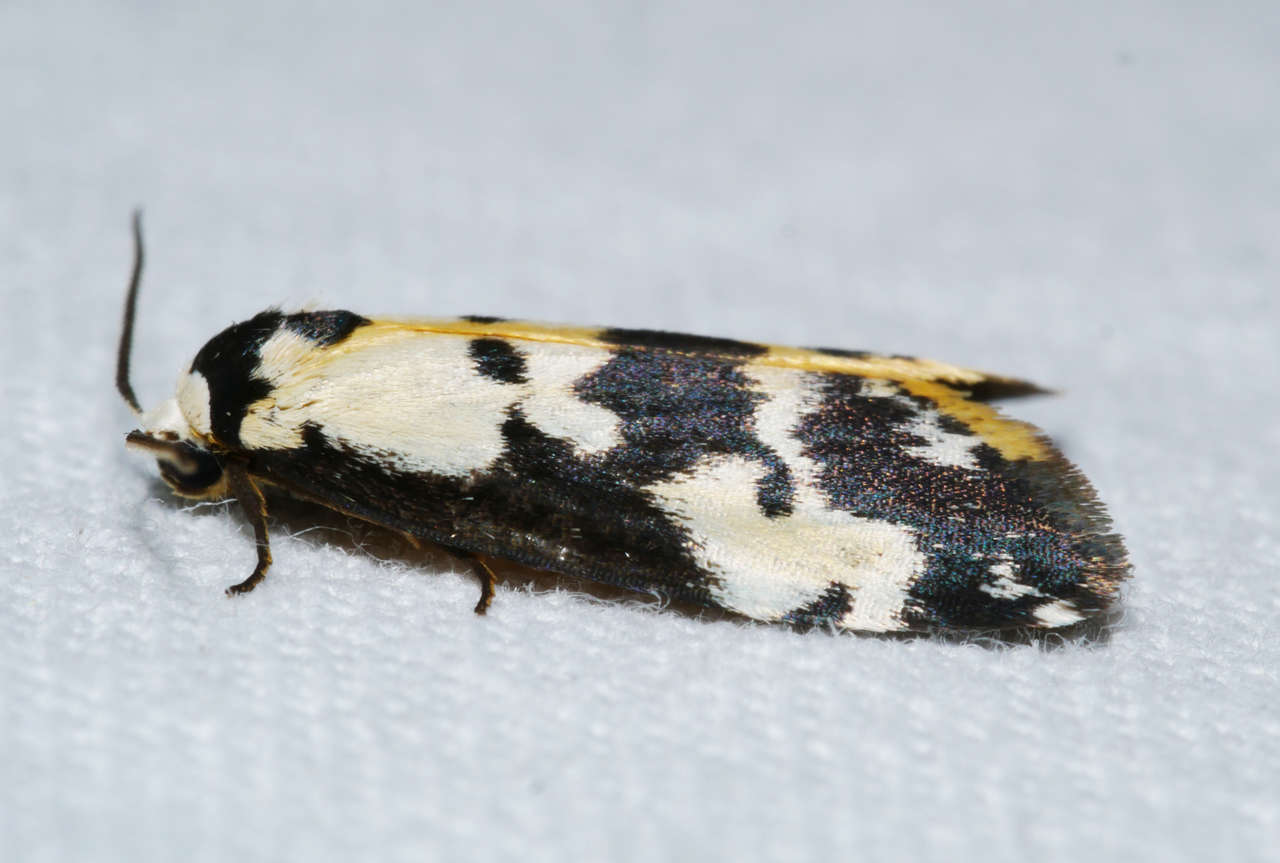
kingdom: Animalia
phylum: Arthropoda
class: Insecta
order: Lepidoptera
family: Erebidae
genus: Thallarcha
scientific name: Thallarcha pellax
